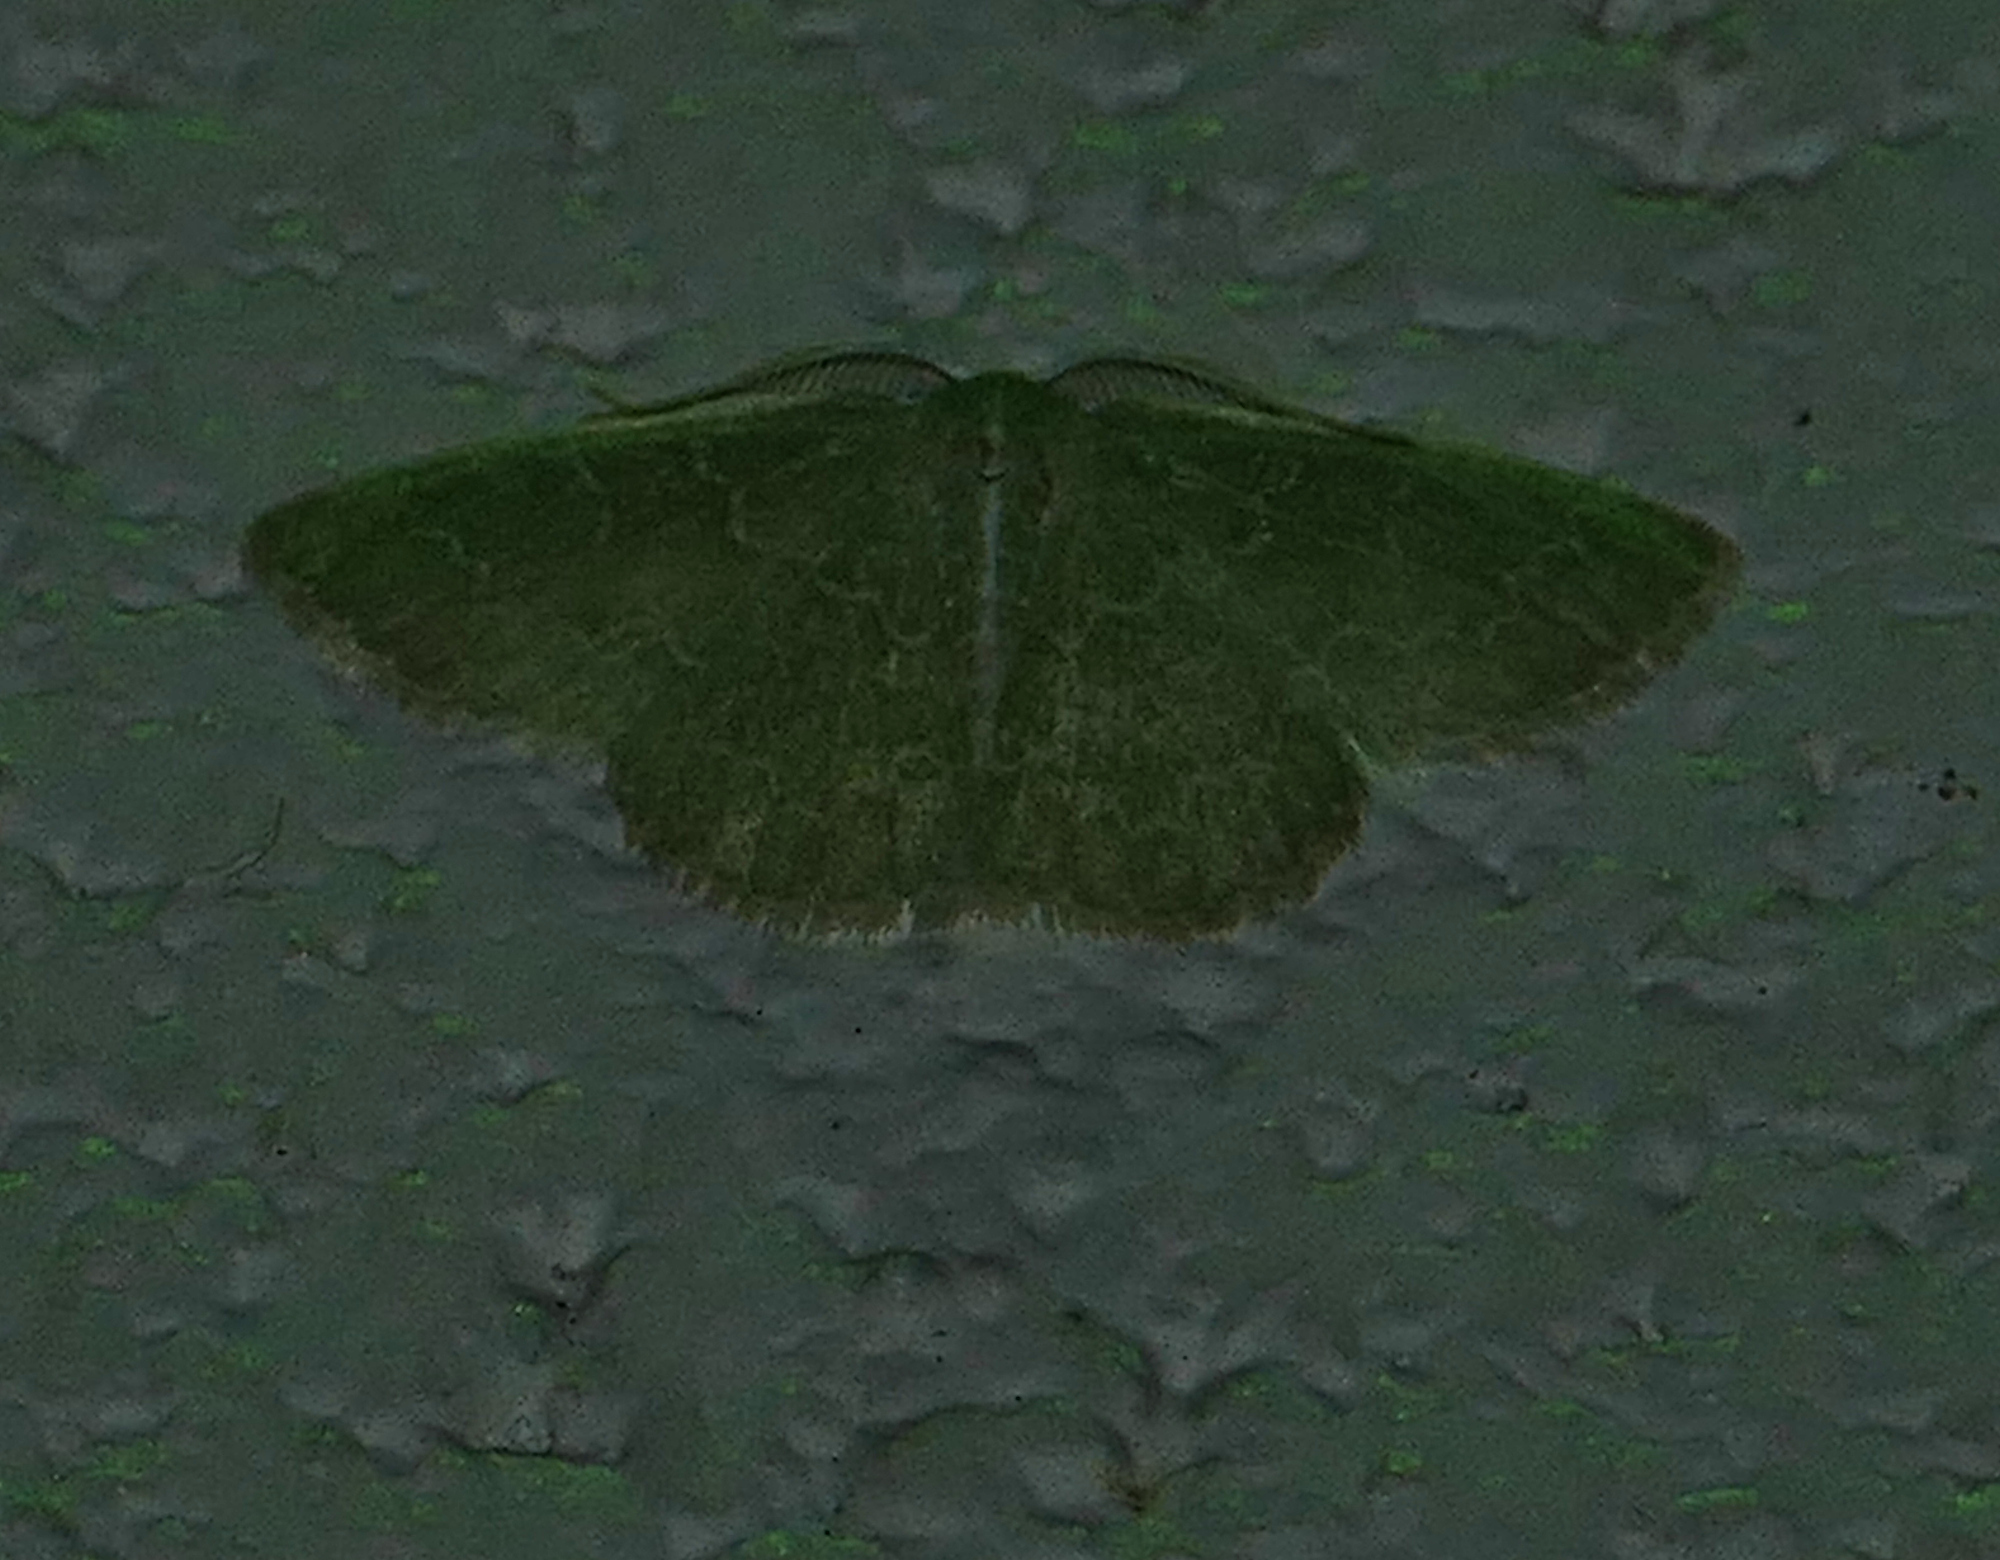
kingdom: Animalia
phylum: Arthropoda
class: Insecta
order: Lepidoptera
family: Geometridae
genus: Synchlora
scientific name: Synchlora frondaria
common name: Southern emerald
